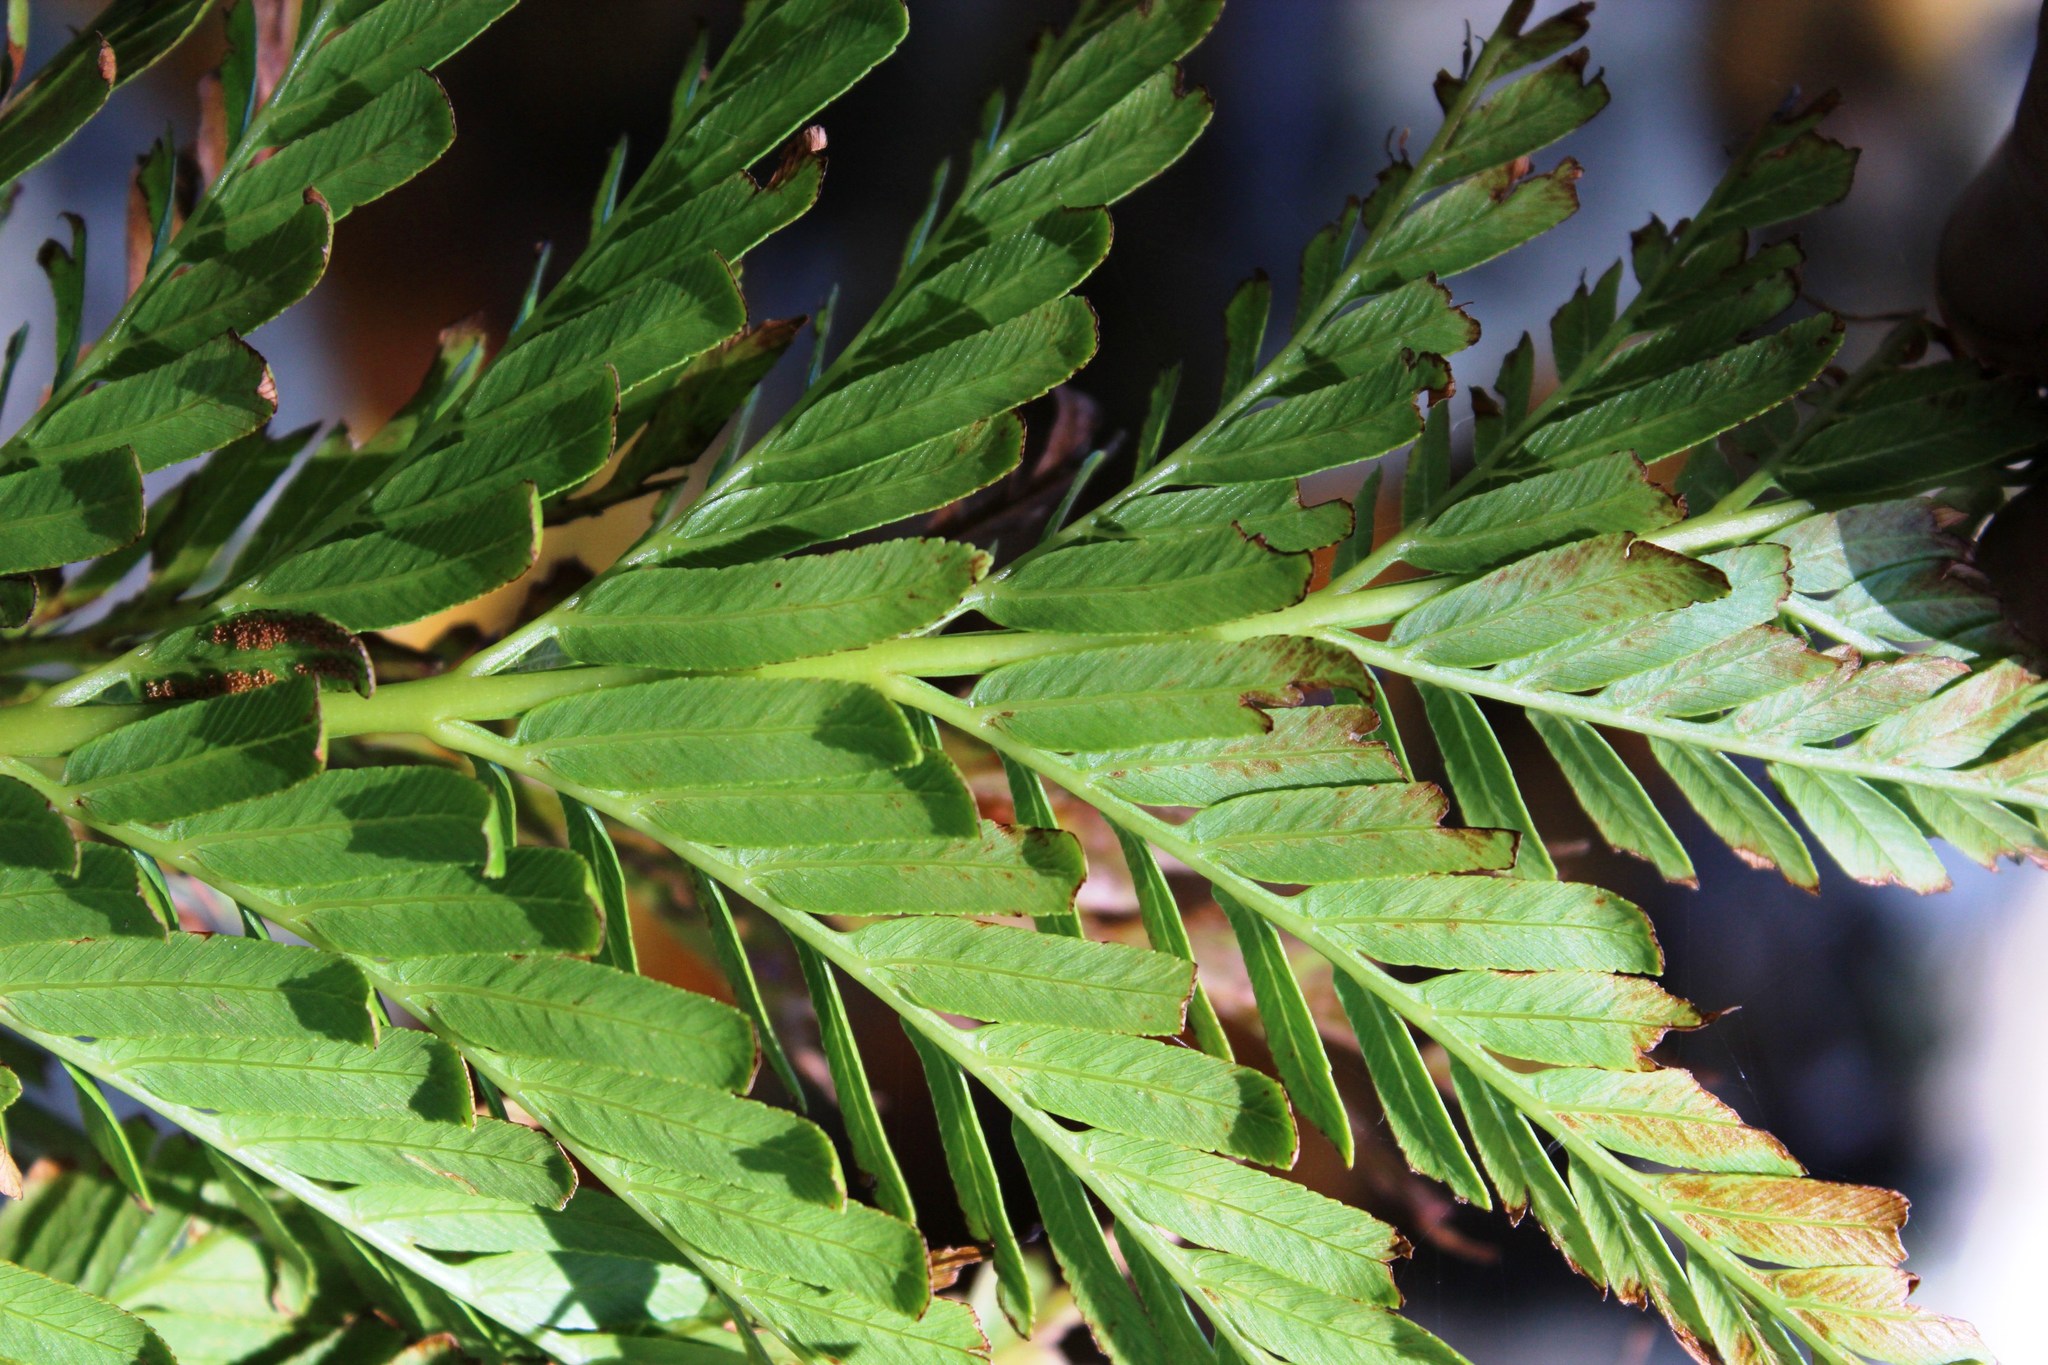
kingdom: Plantae
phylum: Tracheophyta
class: Polypodiopsida
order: Osmundales
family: Osmundaceae
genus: Todea
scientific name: Todea barbara
